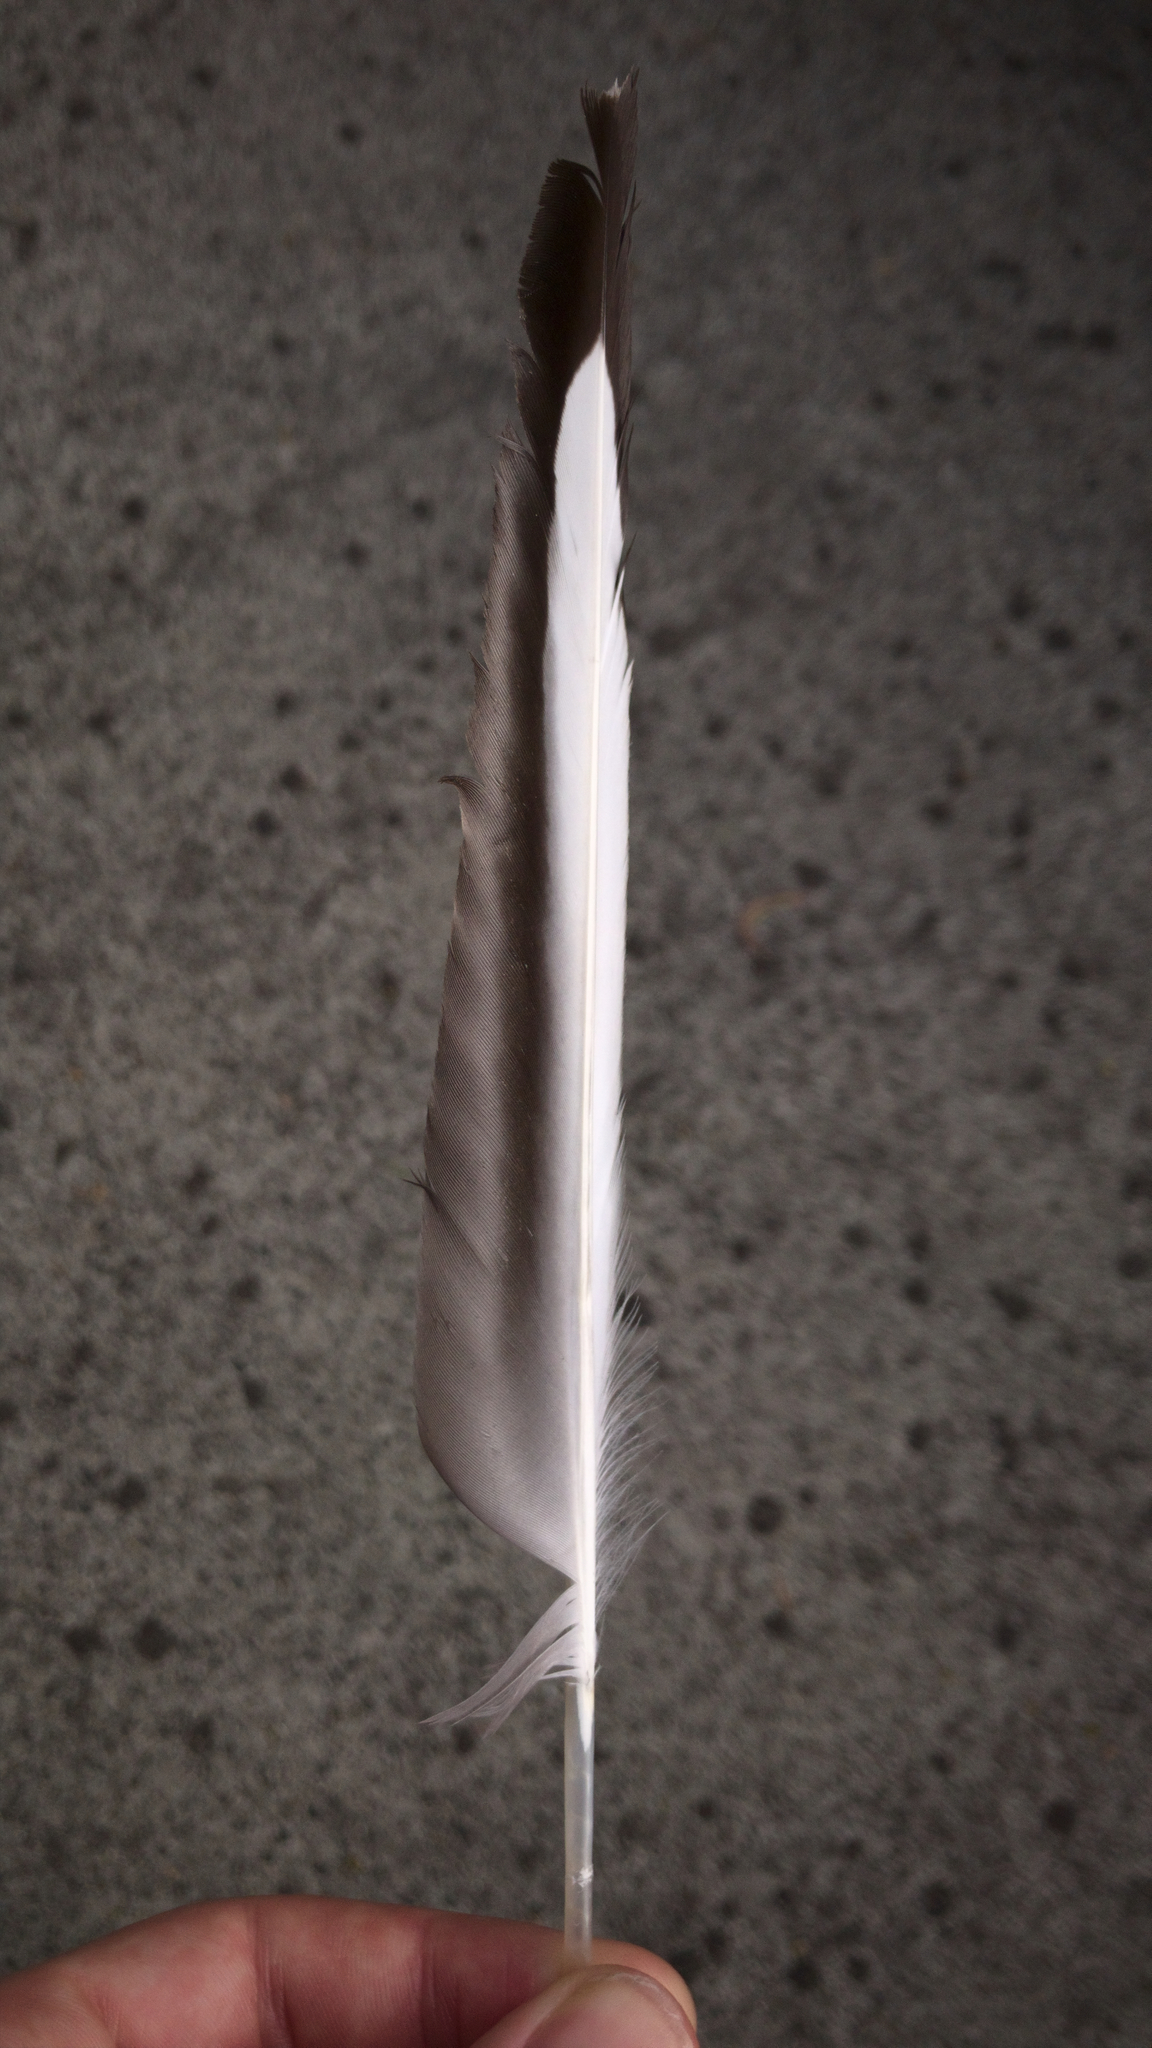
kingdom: Animalia
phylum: Chordata
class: Aves
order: Charadriiformes
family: Laridae
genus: Chroicocephalus
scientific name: Chroicocephalus novaehollandiae
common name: Silver gull
